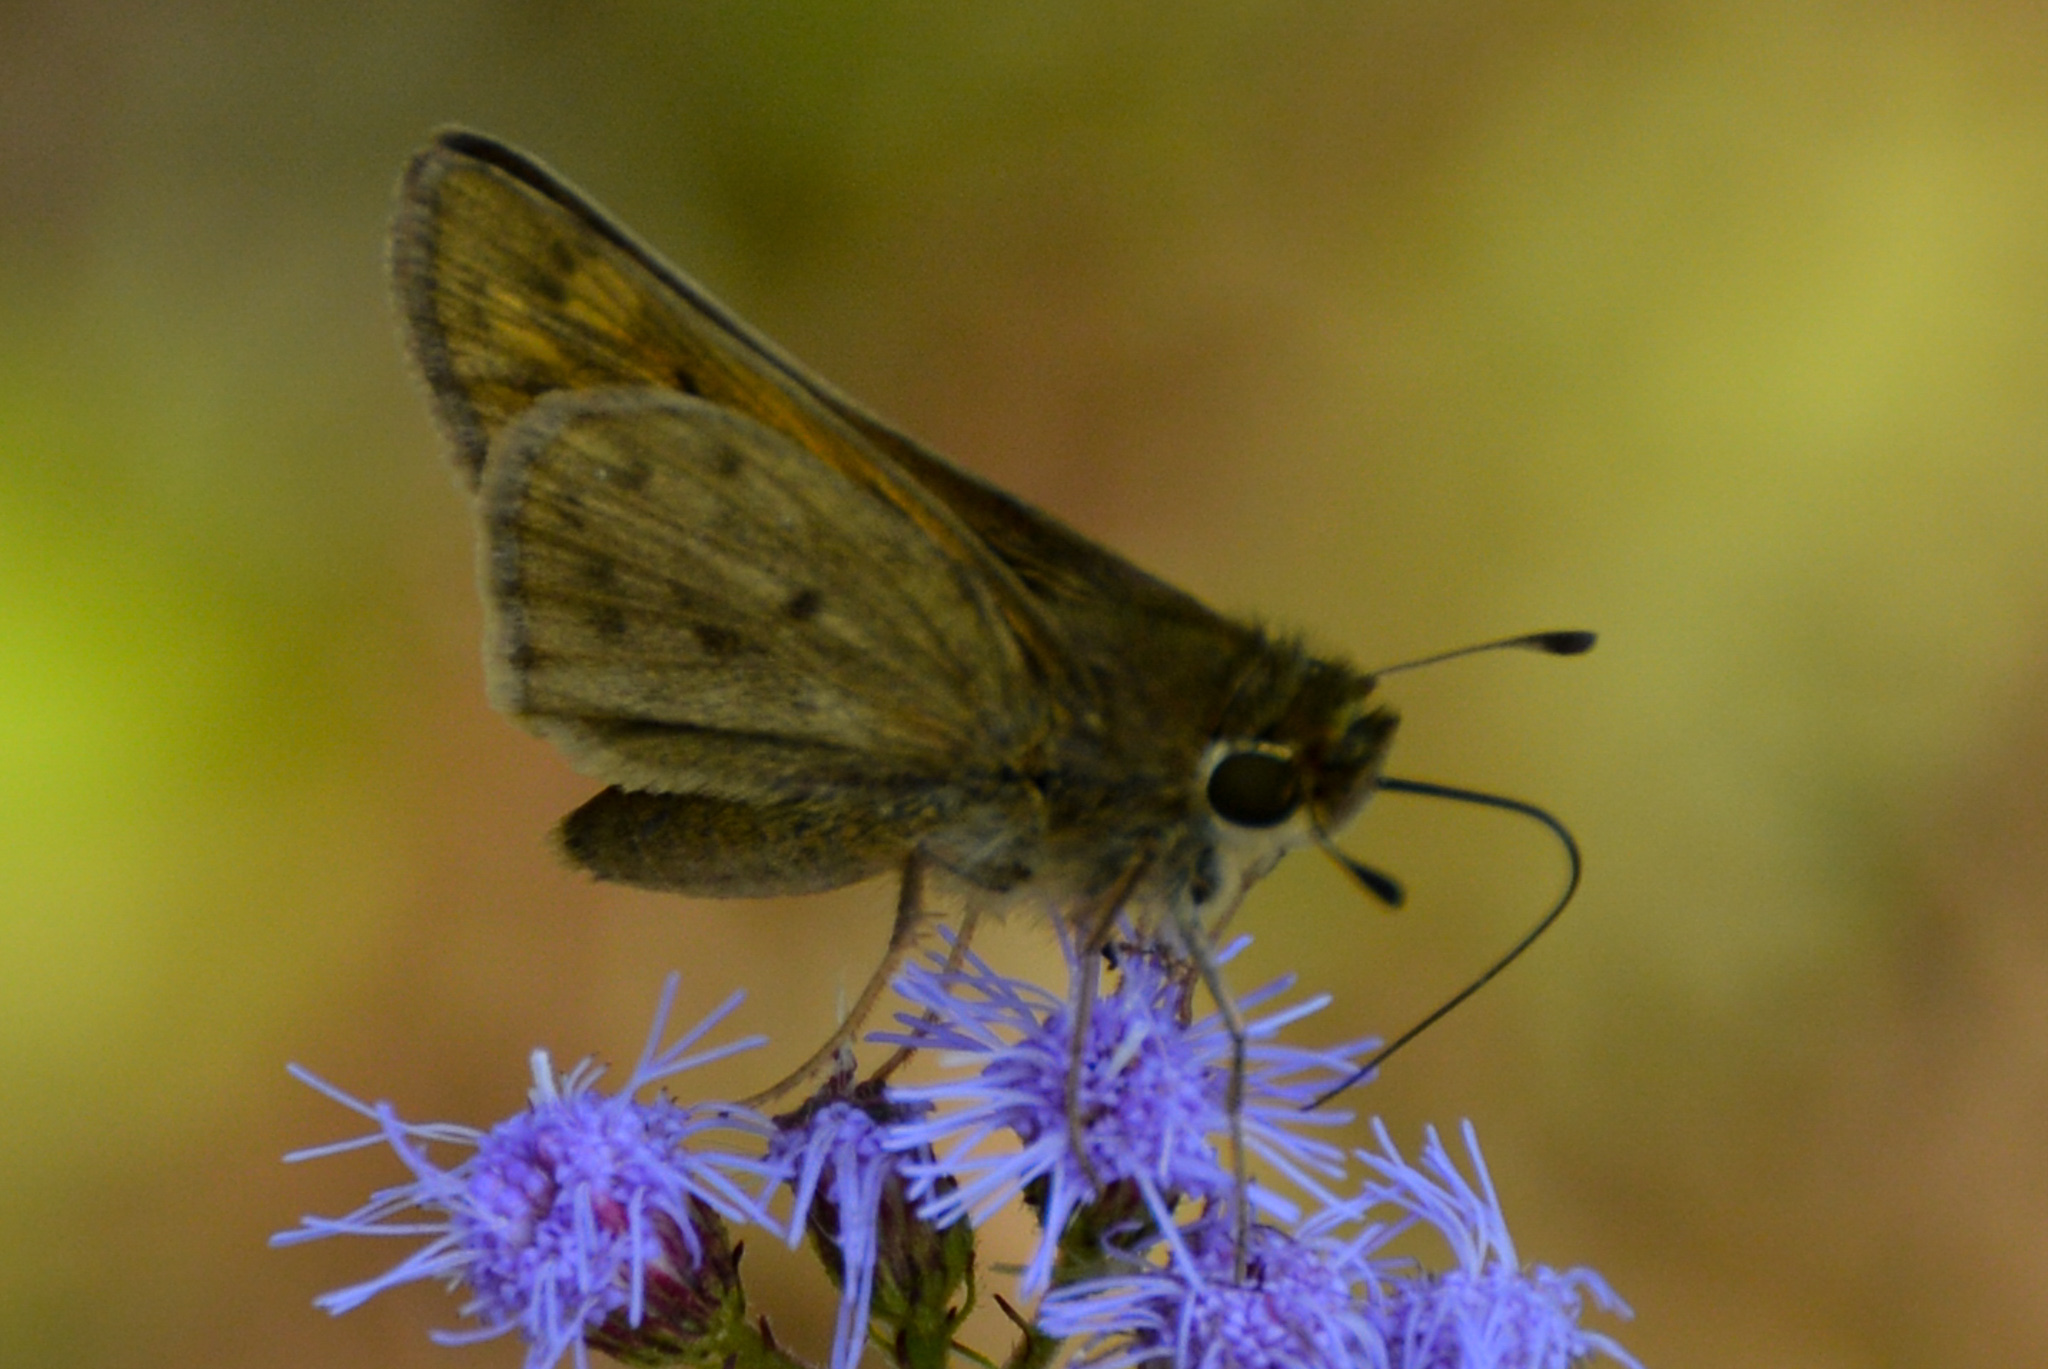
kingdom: Animalia
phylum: Arthropoda
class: Insecta
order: Lepidoptera
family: Hesperiidae
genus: Hylephila
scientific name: Hylephila phyleus
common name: Fiery skipper
